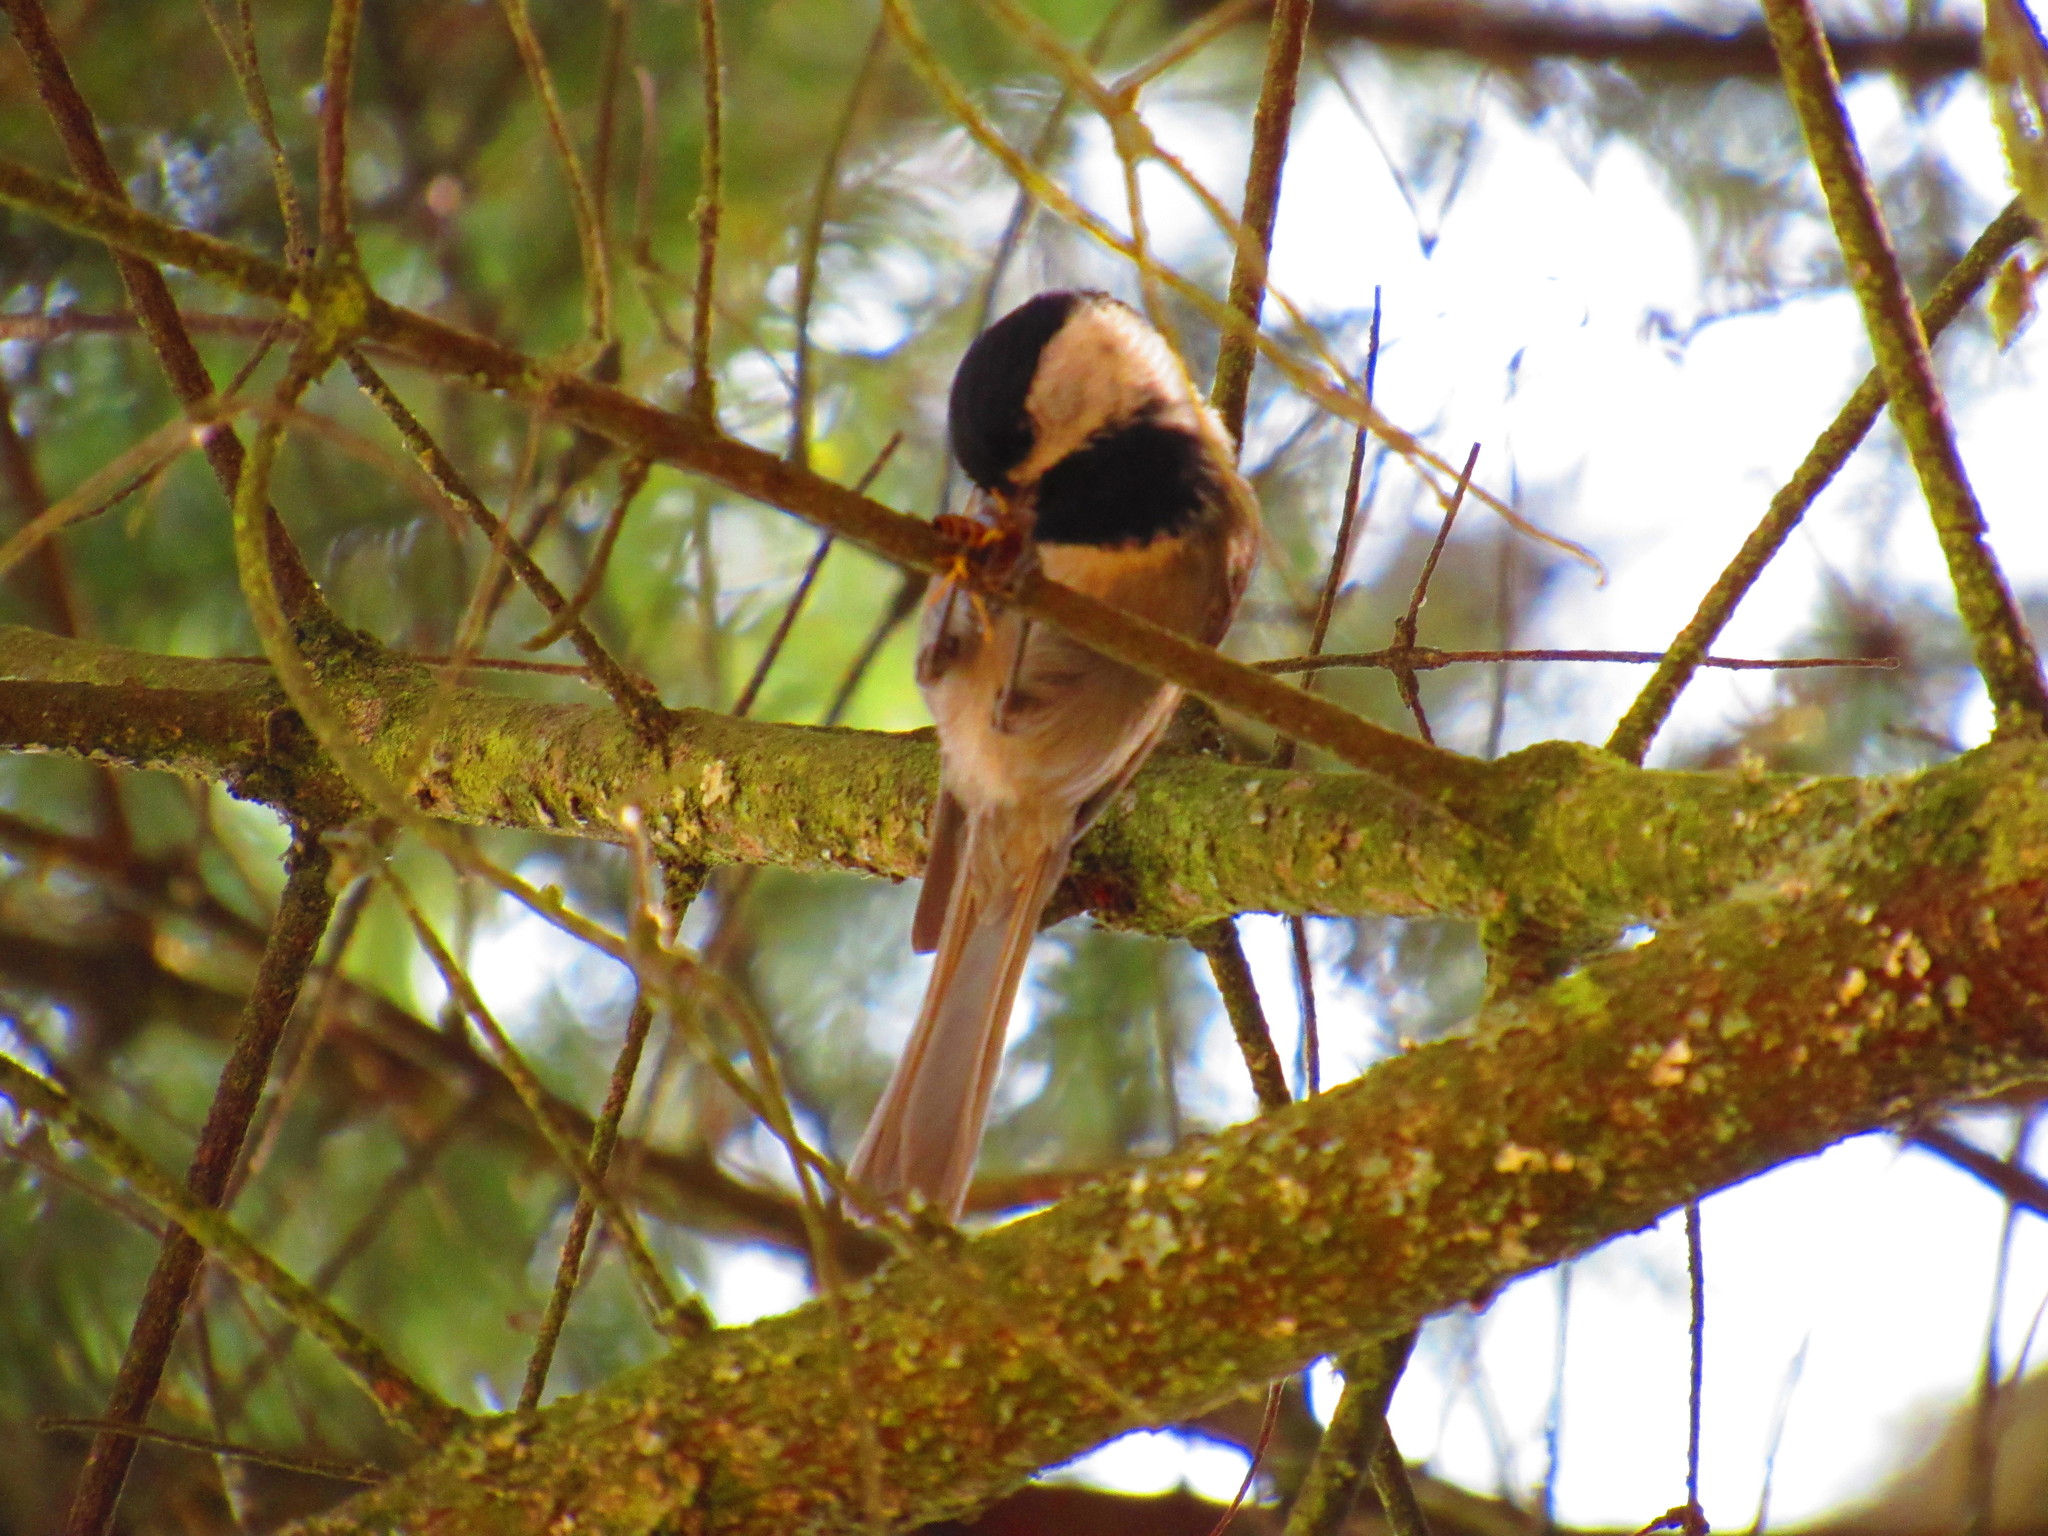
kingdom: Animalia
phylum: Chordata
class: Aves
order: Passeriformes
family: Paridae
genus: Poecile
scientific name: Poecile sclateri
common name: Mexican chickadee
